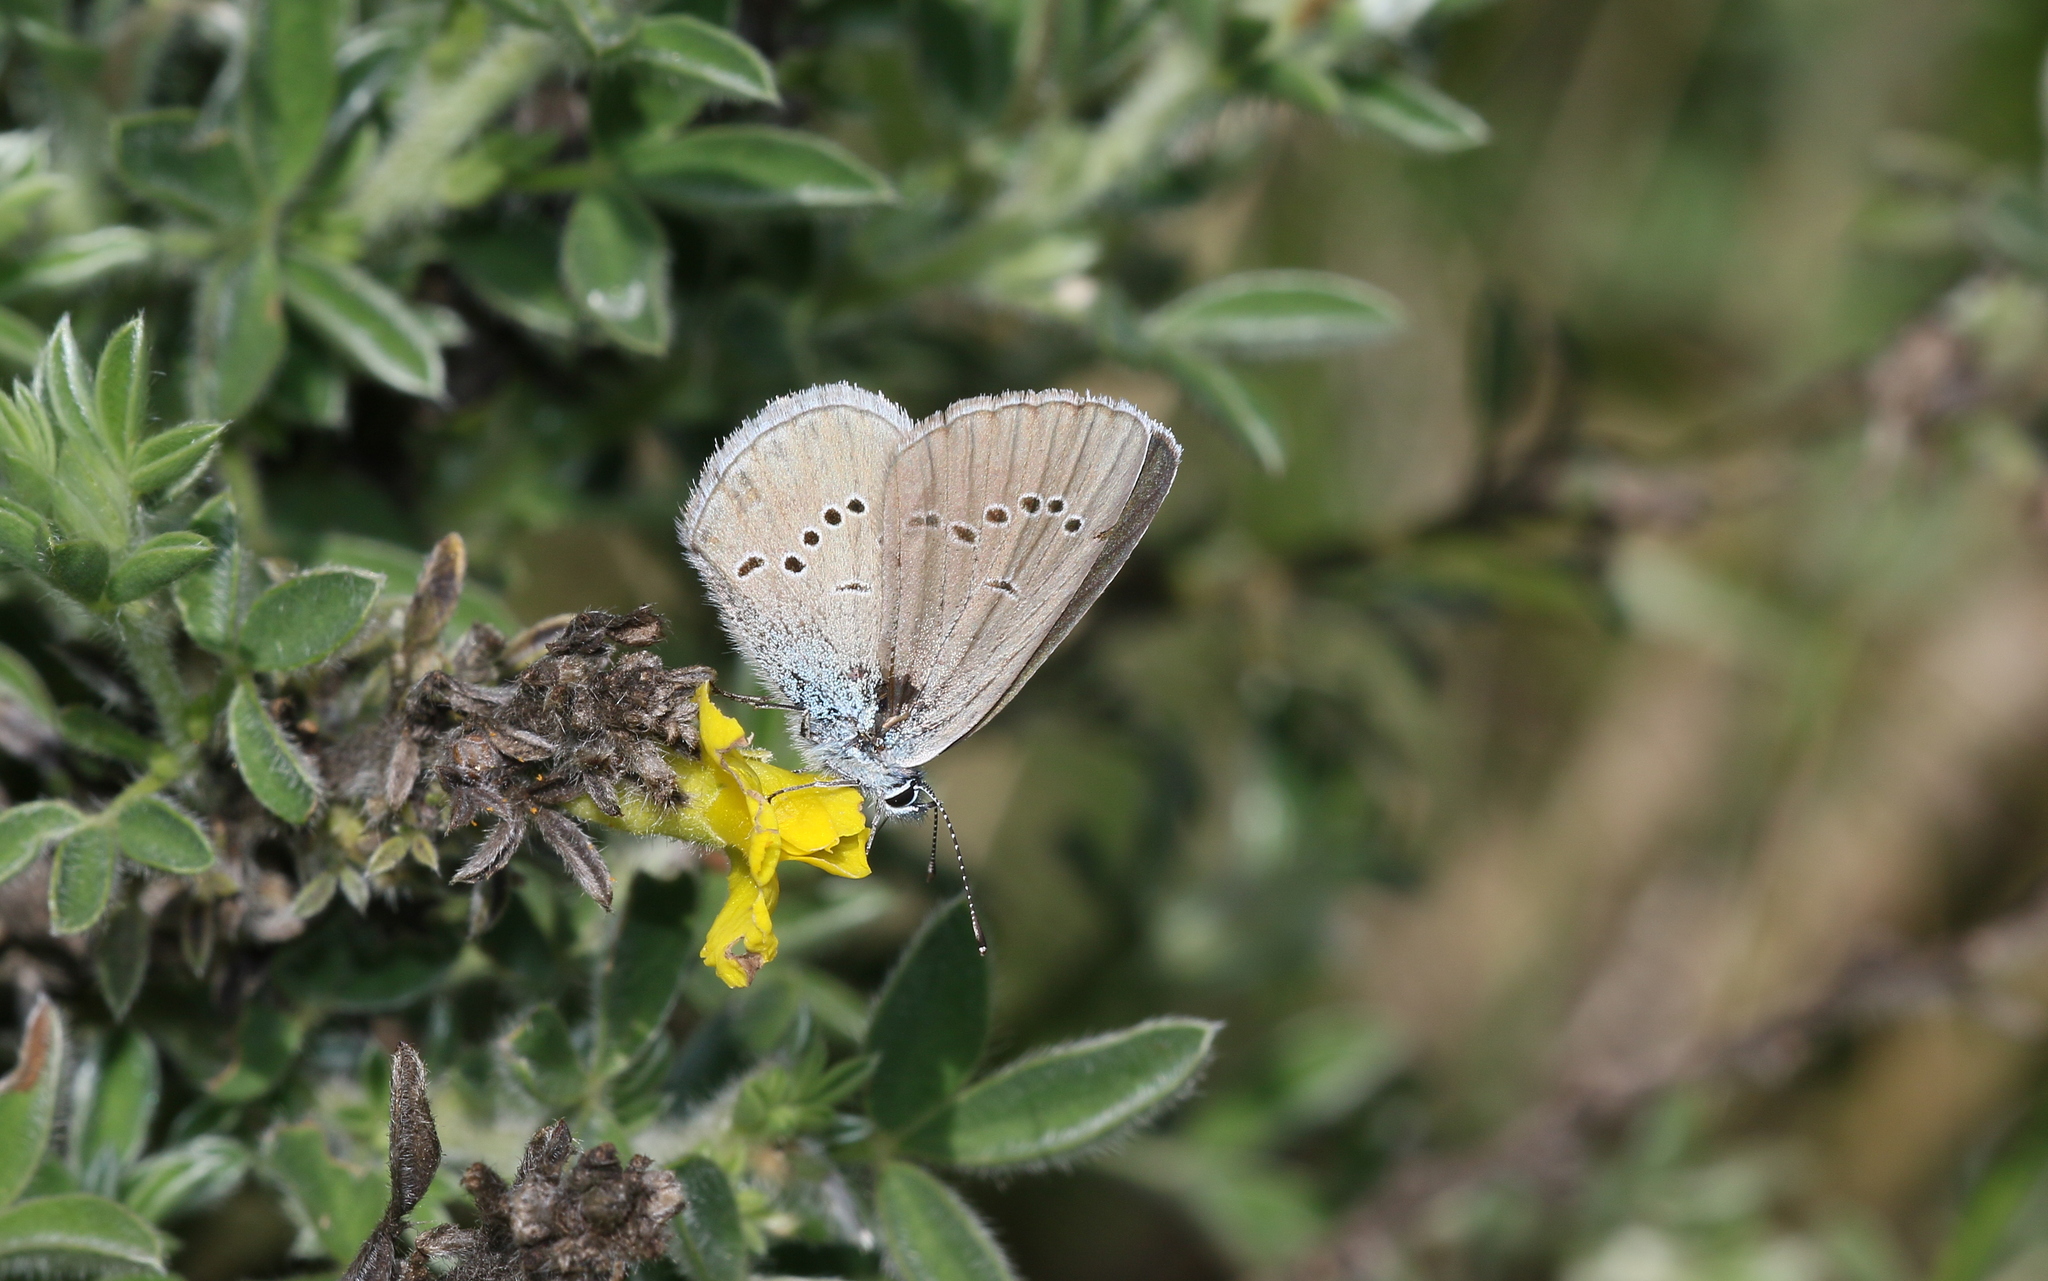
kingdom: Animalia
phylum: Arthropoda
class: Insecta
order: Lepidoptera
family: Lycaenidae
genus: Cyaniris
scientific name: Cyaniris semiargus
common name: Mazarine blue
